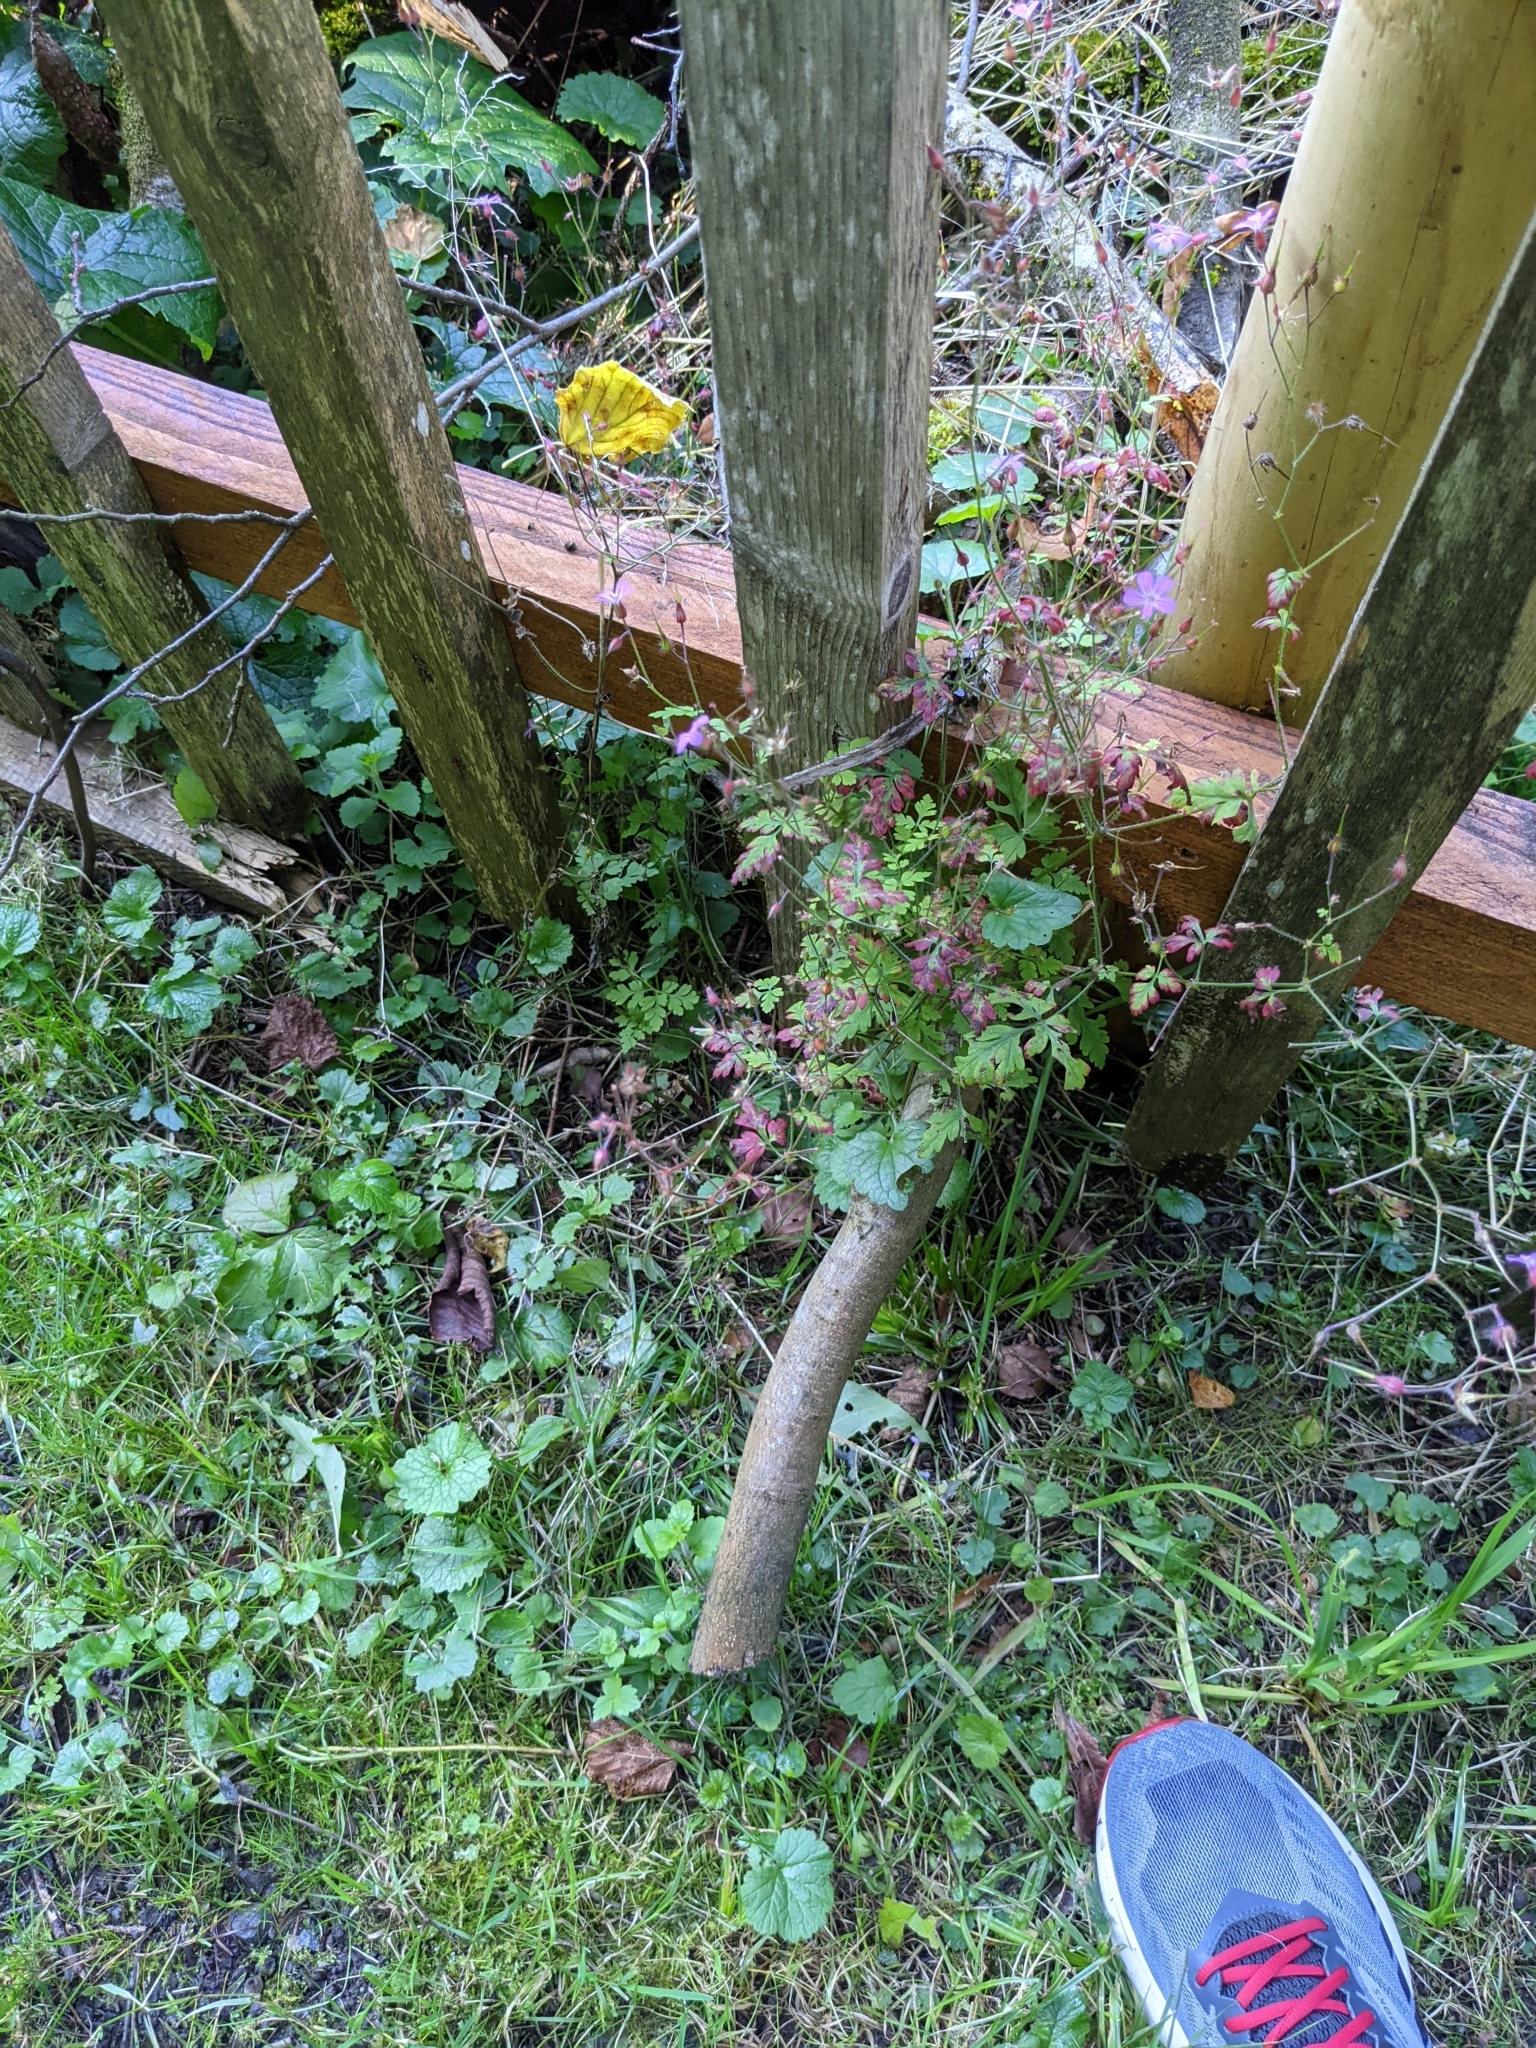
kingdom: Plantae
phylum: Tracheophyta
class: Magnoliopsida
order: Geraniales
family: Geraniaceae
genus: Geranium
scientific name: Geranium robertianum
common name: Herb-robert
